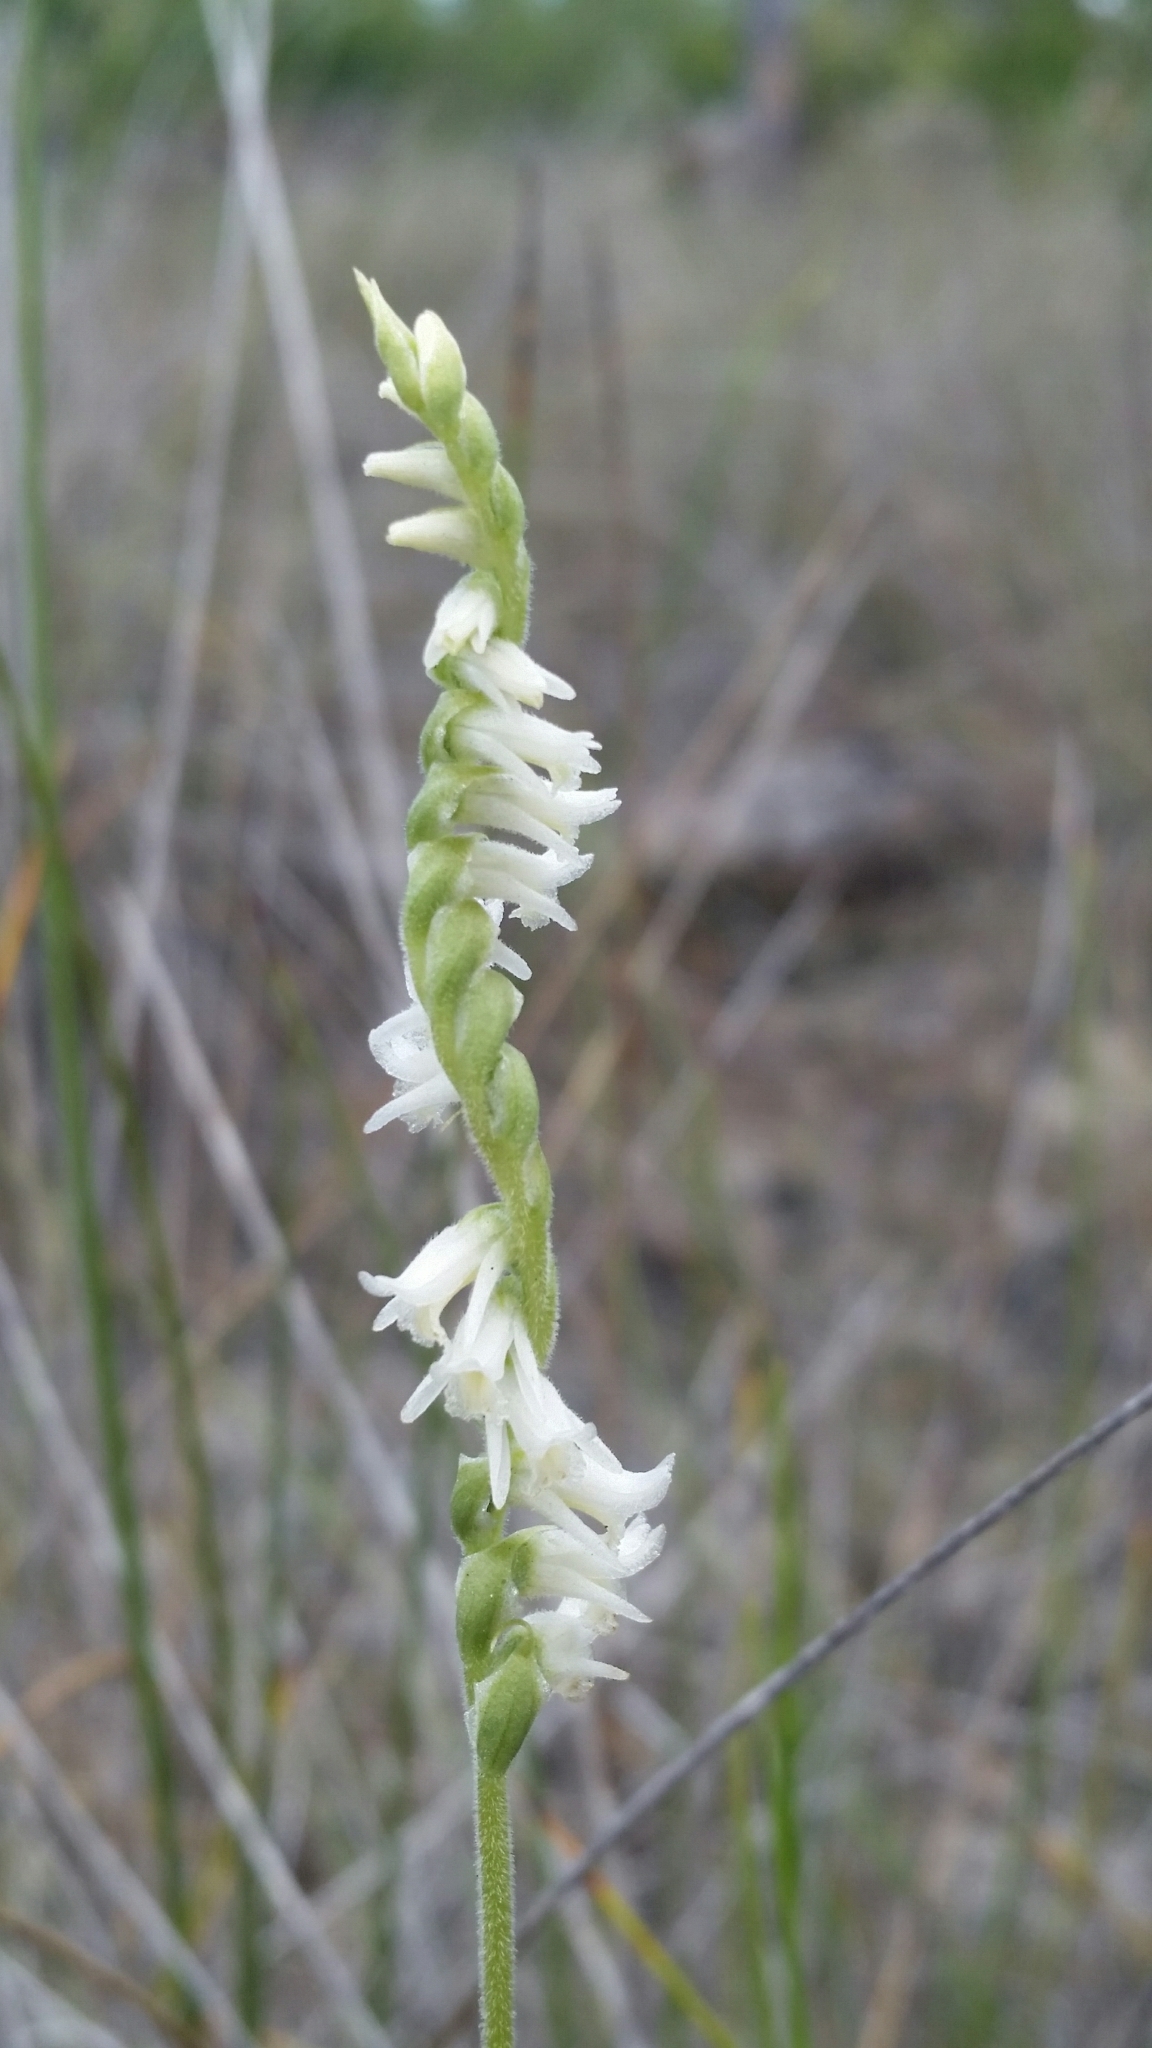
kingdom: Plantae
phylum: Tracheophyta
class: Liliopsida
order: Asparagales
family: Orchidaceae
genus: Spiranthes
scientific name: Spiranthes vernalis
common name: Spring ladies'-tresses
